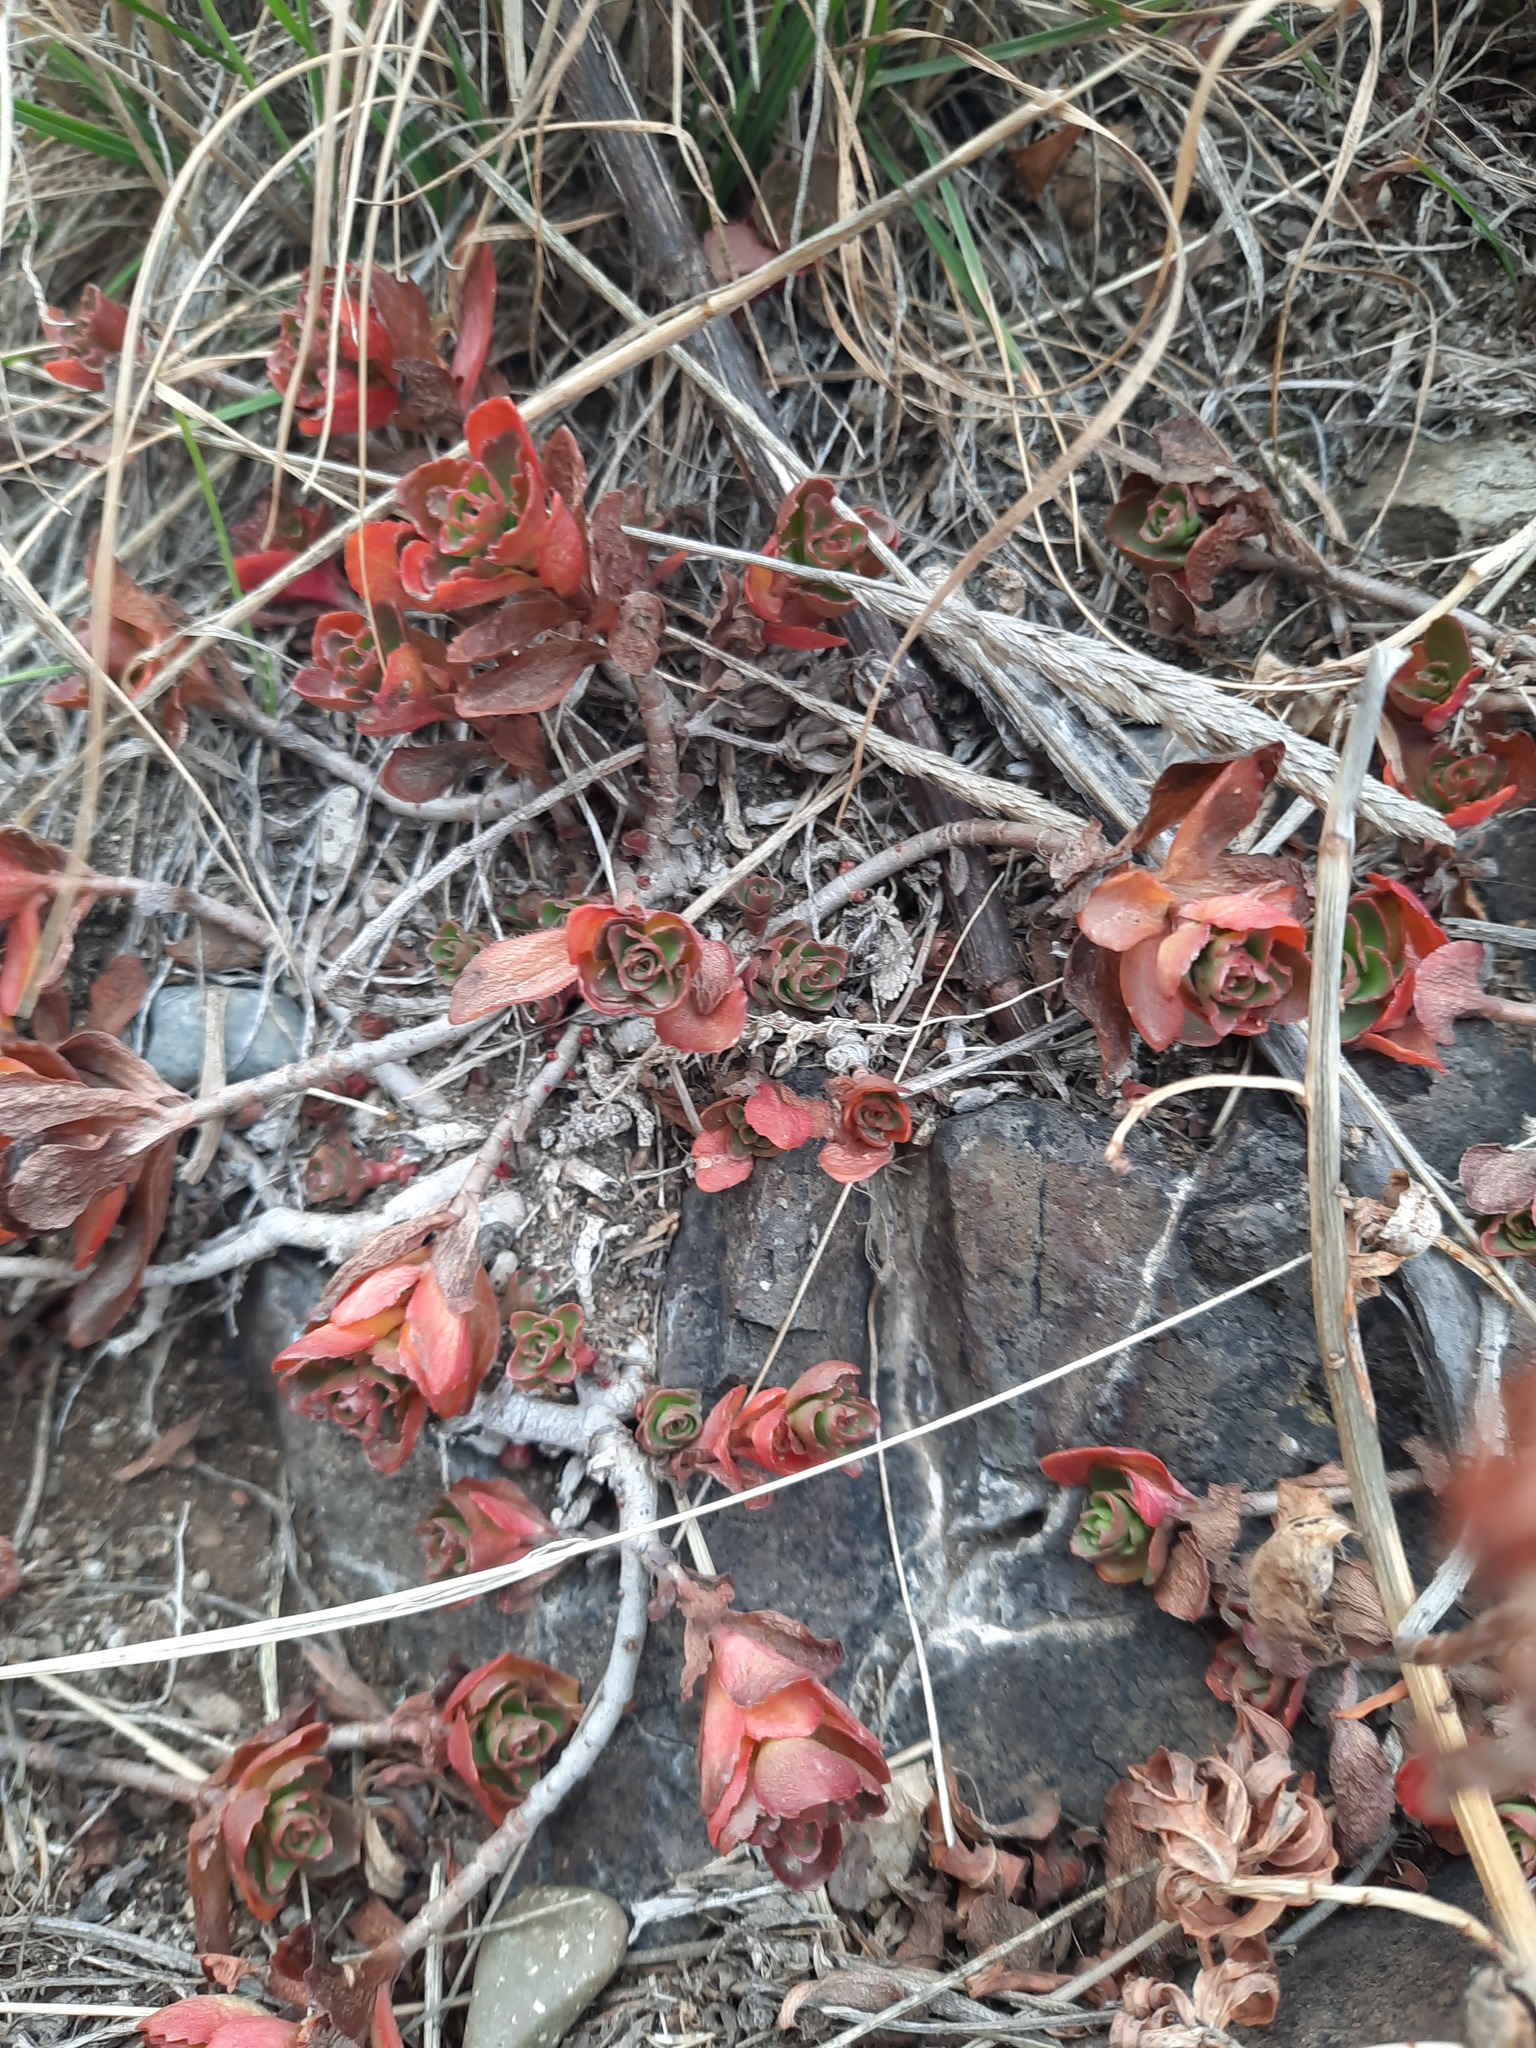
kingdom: Plantae
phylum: Tracheophyta
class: Magnoliopsida
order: Saxifragales
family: Crassulaceae
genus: Phedimus
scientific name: Phedimus spurius
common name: Caucasian stonecrop
